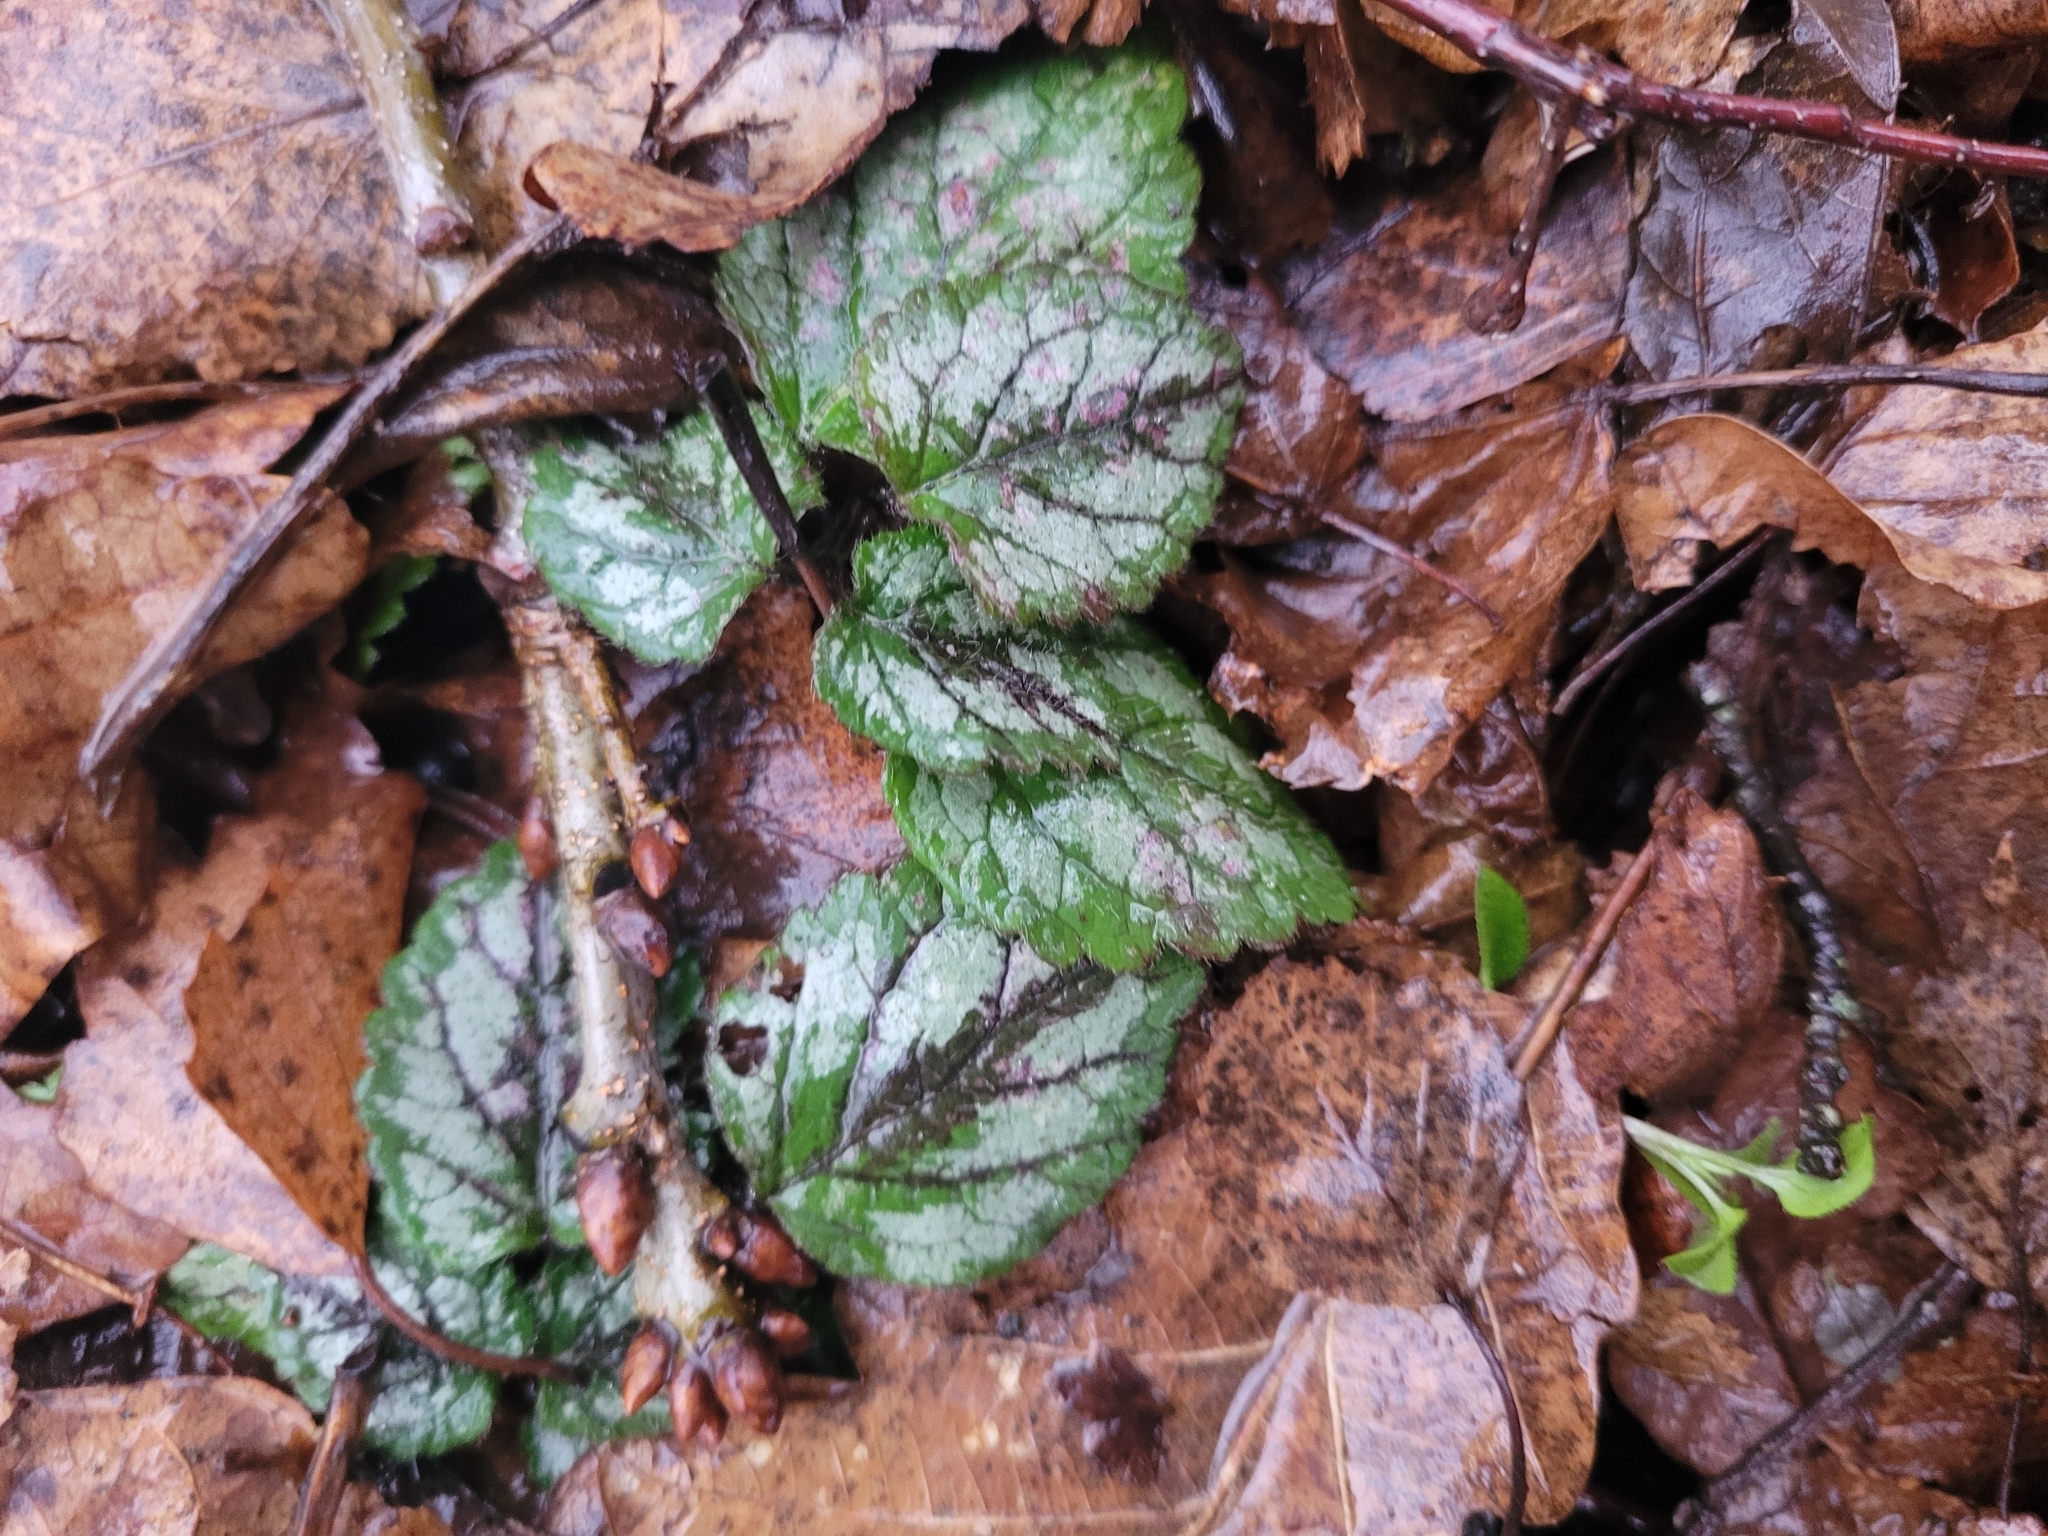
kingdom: Plantae
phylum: Tracheophyta
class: Magnoliopsida
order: Lamiales
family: Lamiaceae
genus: Lamium
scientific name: Lamium galeobdolon
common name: Yellow archangel
